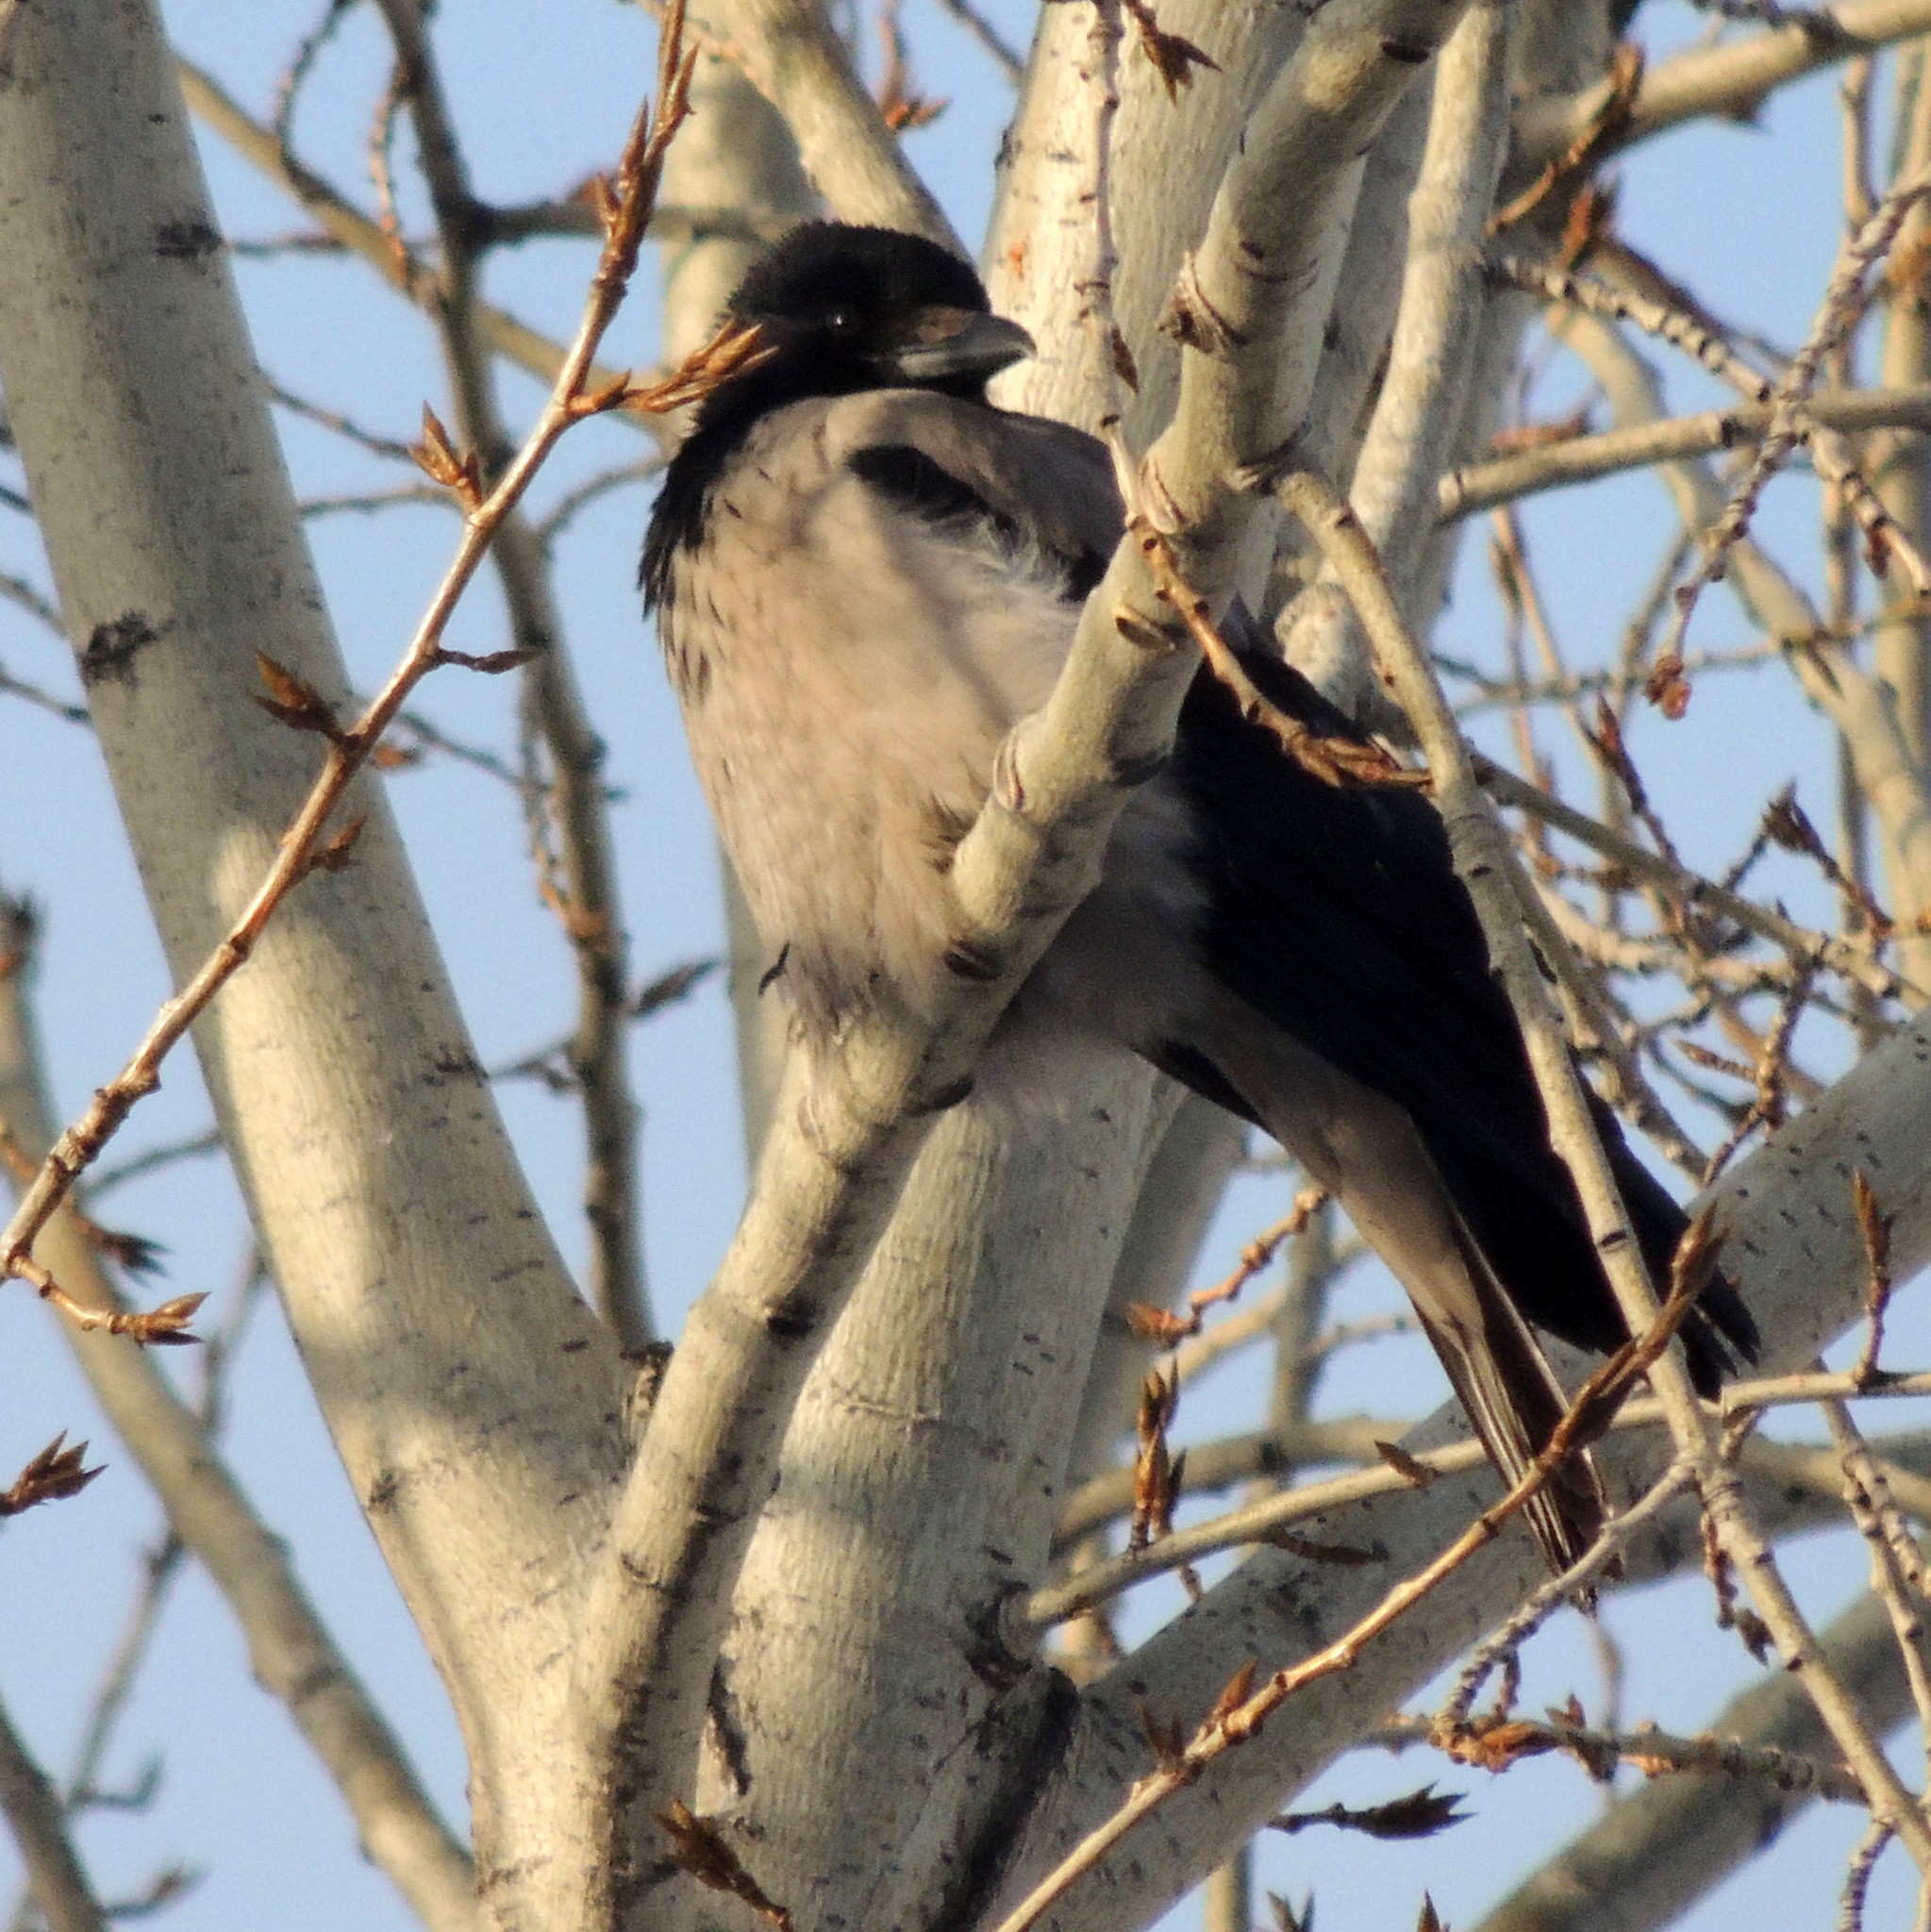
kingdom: Animalia
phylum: Chordata
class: Aves
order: Passeriformes
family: Corvidae
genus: Corvus
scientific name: Corvus cornix
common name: Hooded crow
